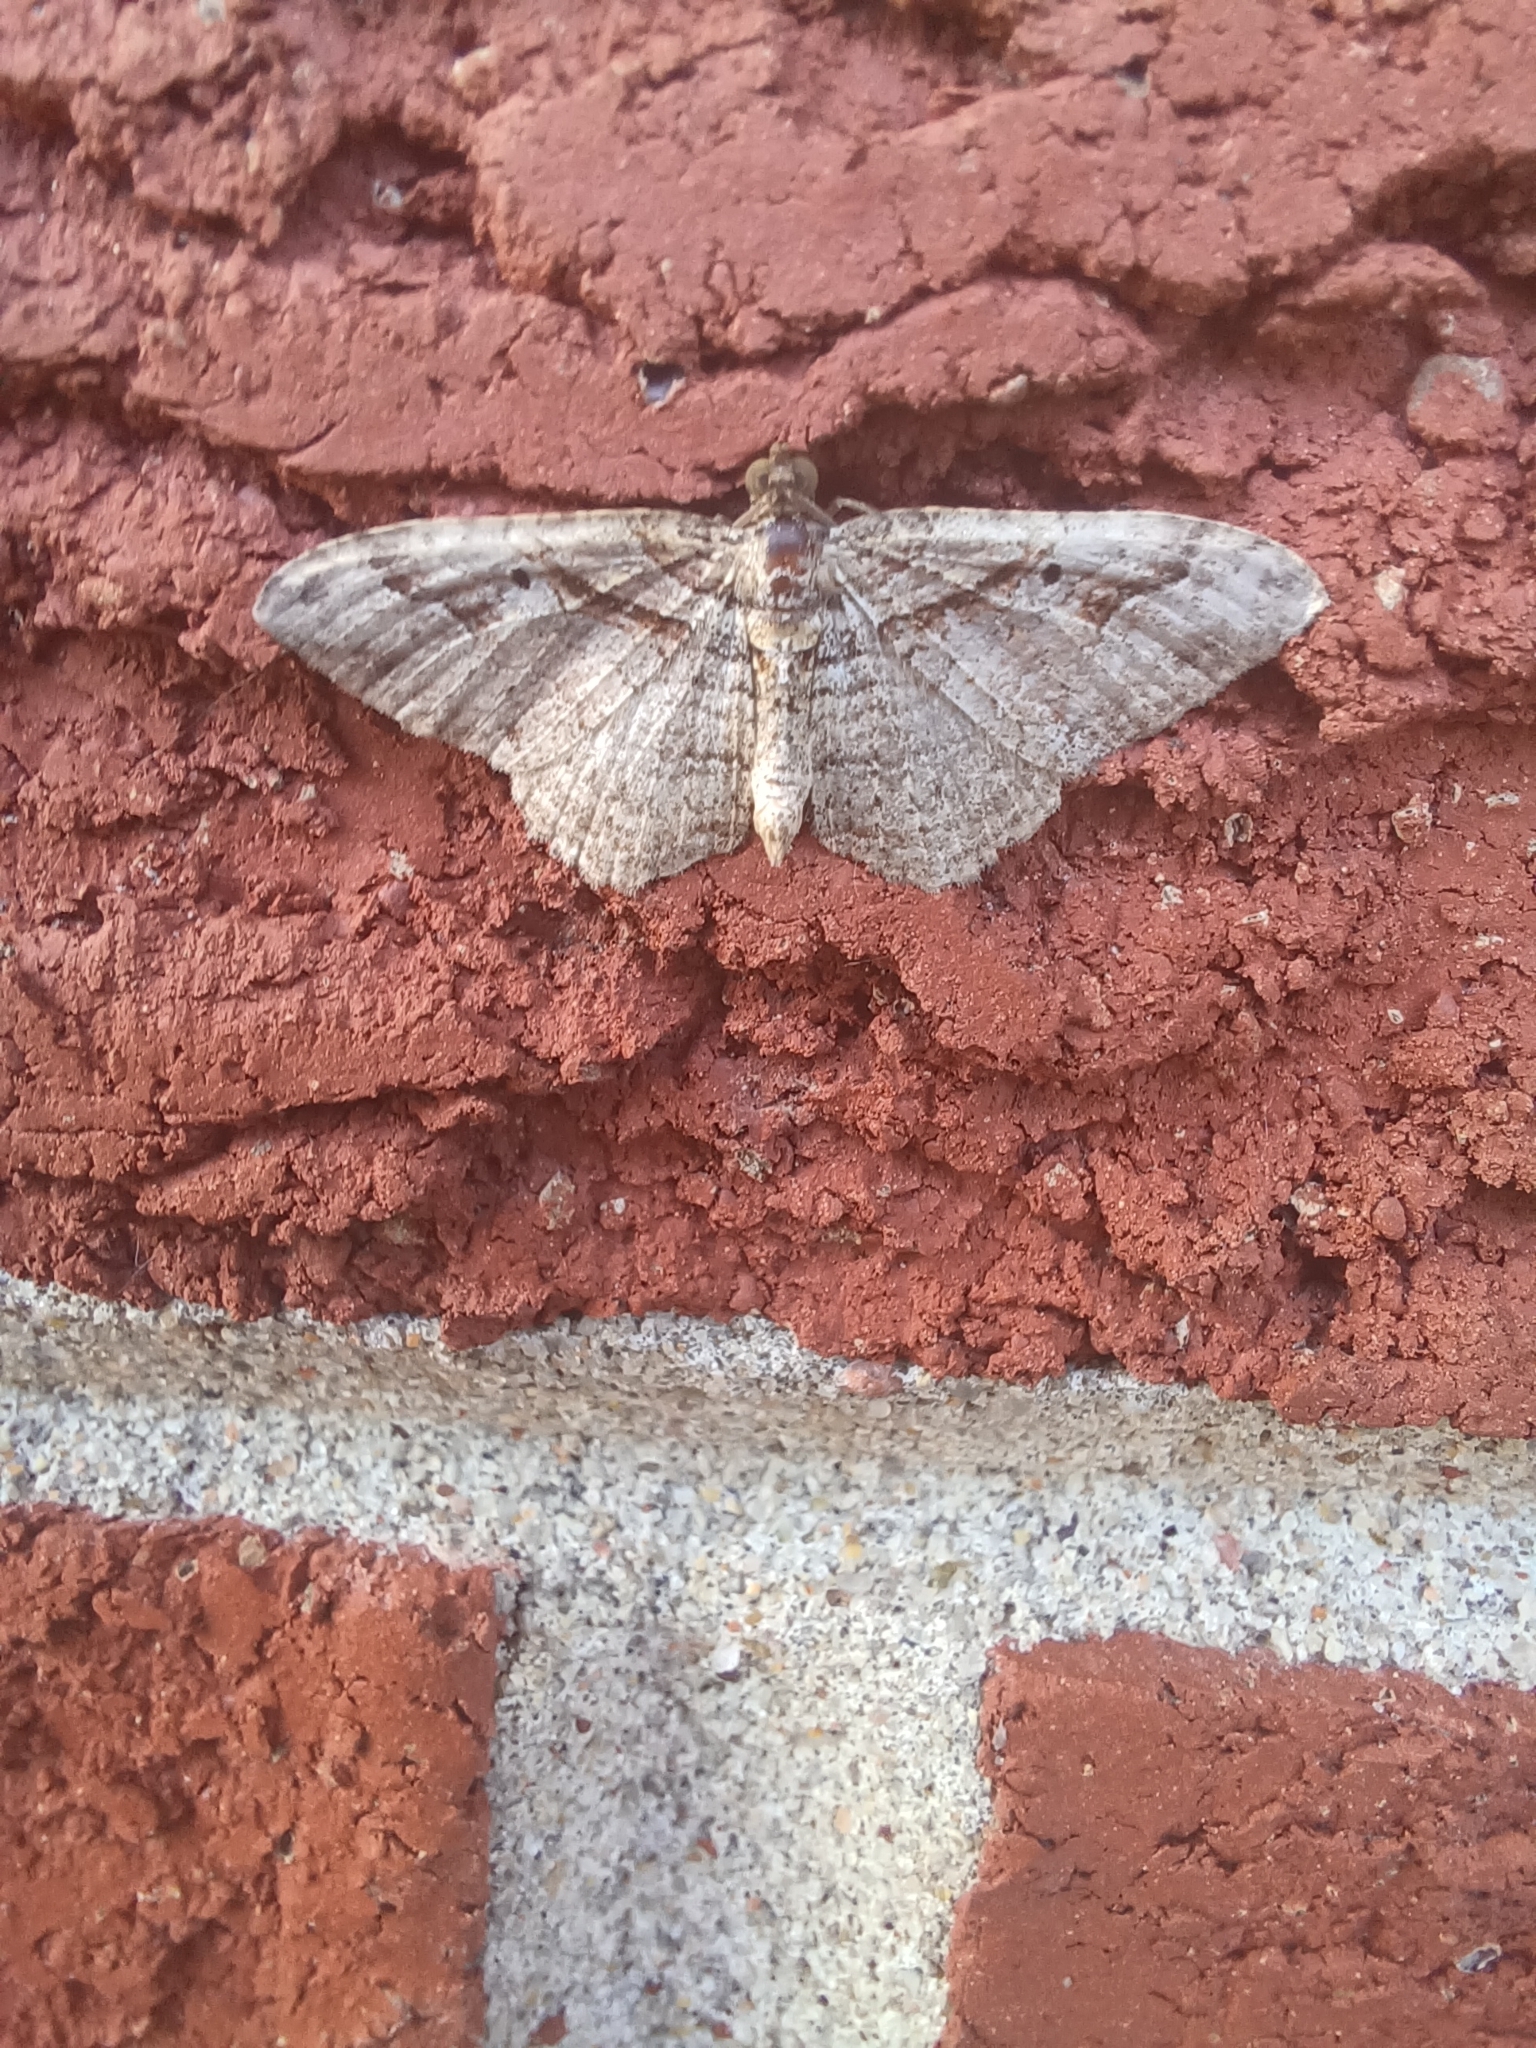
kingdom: Animalia
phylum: Arthropoda
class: Insecta
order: Lepidoptera
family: Geometridae
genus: Costaconvexa
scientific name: Costaconvexa centrostrigaria
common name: Bent-line carpet
